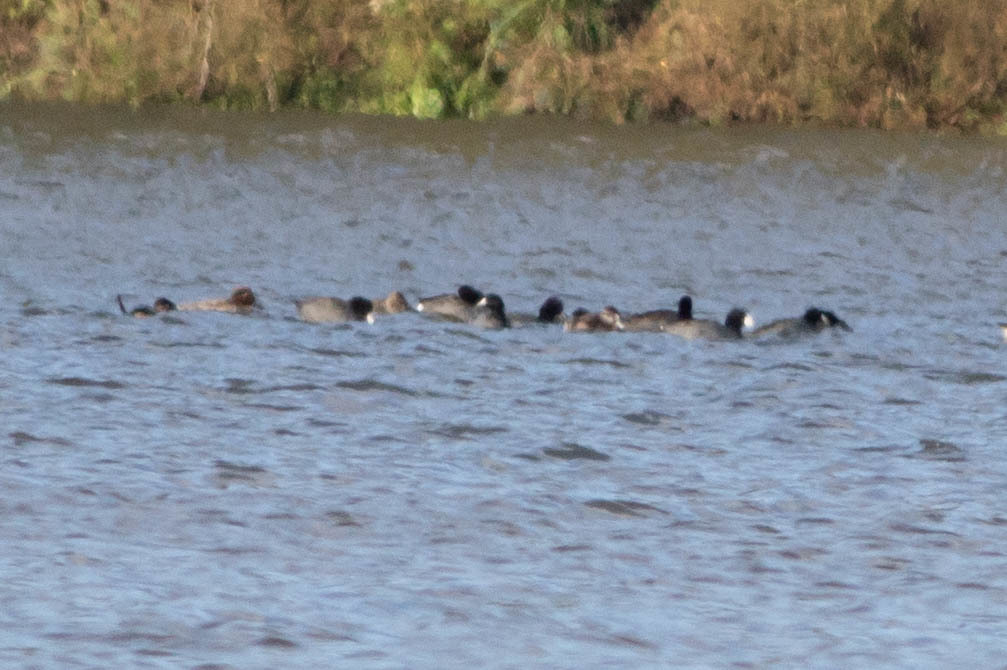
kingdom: Animalia
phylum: Chordata
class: Aves
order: Anseriformes
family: Anatidae
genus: Anas
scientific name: Anas crecca
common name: Eurasian teal
